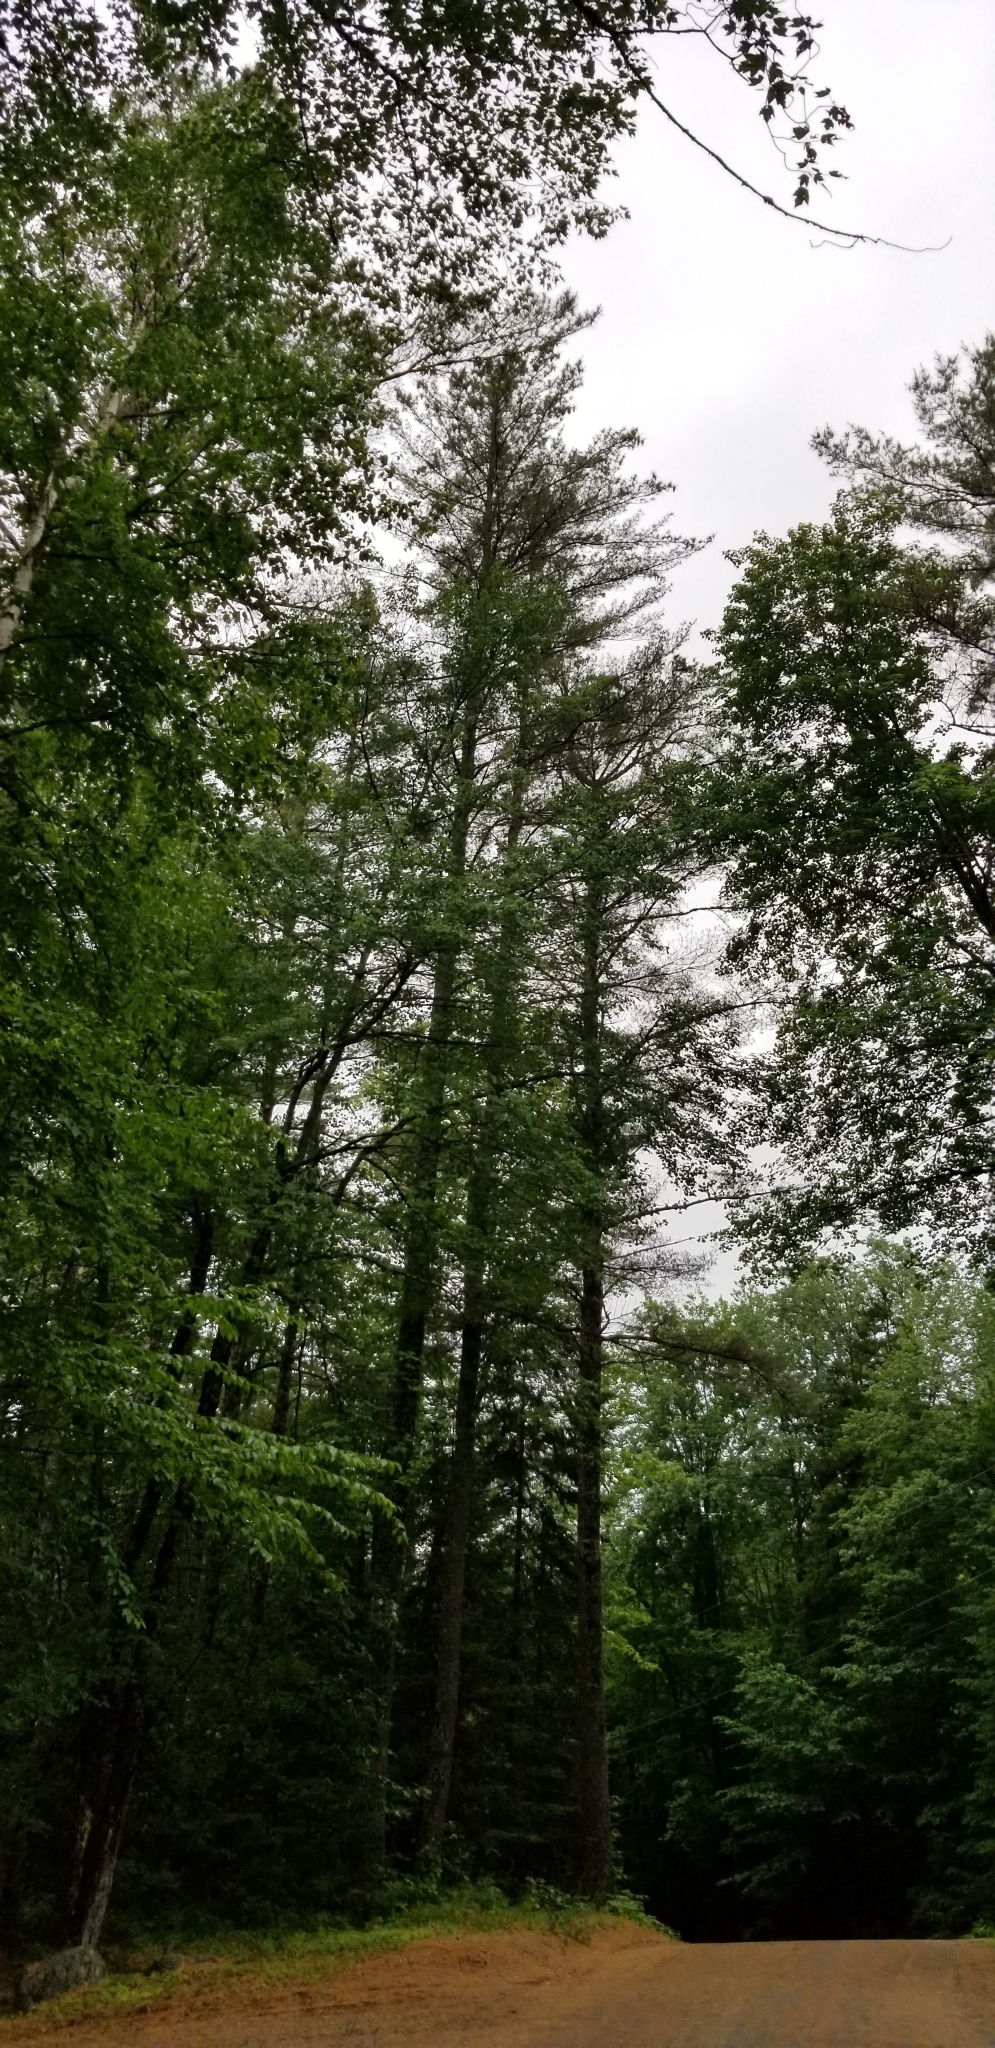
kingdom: Plantae
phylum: Tracheophyta
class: Pinopsida
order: Pinales
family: Pinaceae
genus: Pinus
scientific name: Pinus strobus
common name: Weymouth pine
